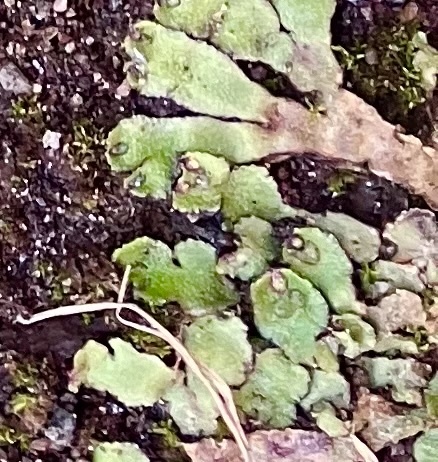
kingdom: Plantae
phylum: Marchantiophyta
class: Marchantiopsida
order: Marchantiales
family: Aytoniaceae
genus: Reboulia
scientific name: Reboulia hemisphaerica
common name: Purple-margined liverwort
